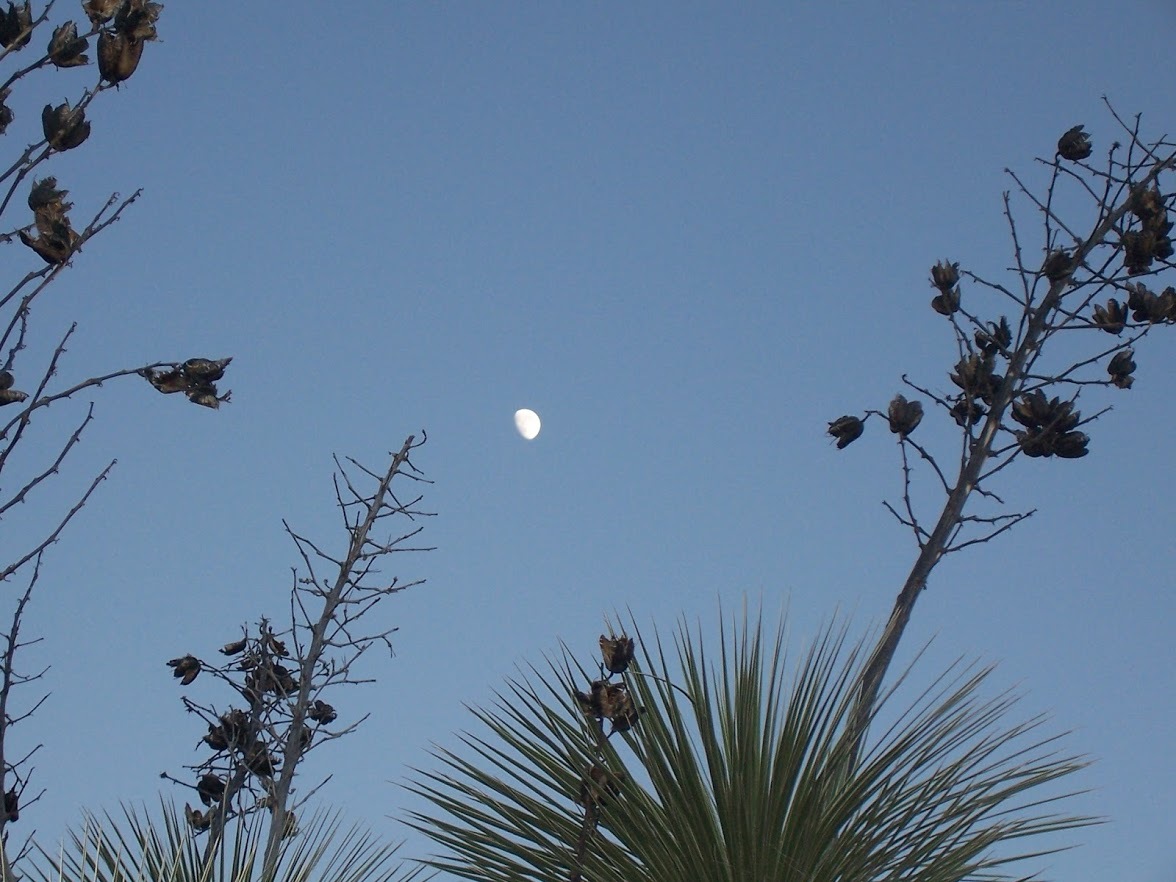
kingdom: Plantae
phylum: Tracheophyta
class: Liliopsida
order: Asparagales
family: Asparagaceae
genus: Yucca
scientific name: Yucca elata
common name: Palmella
